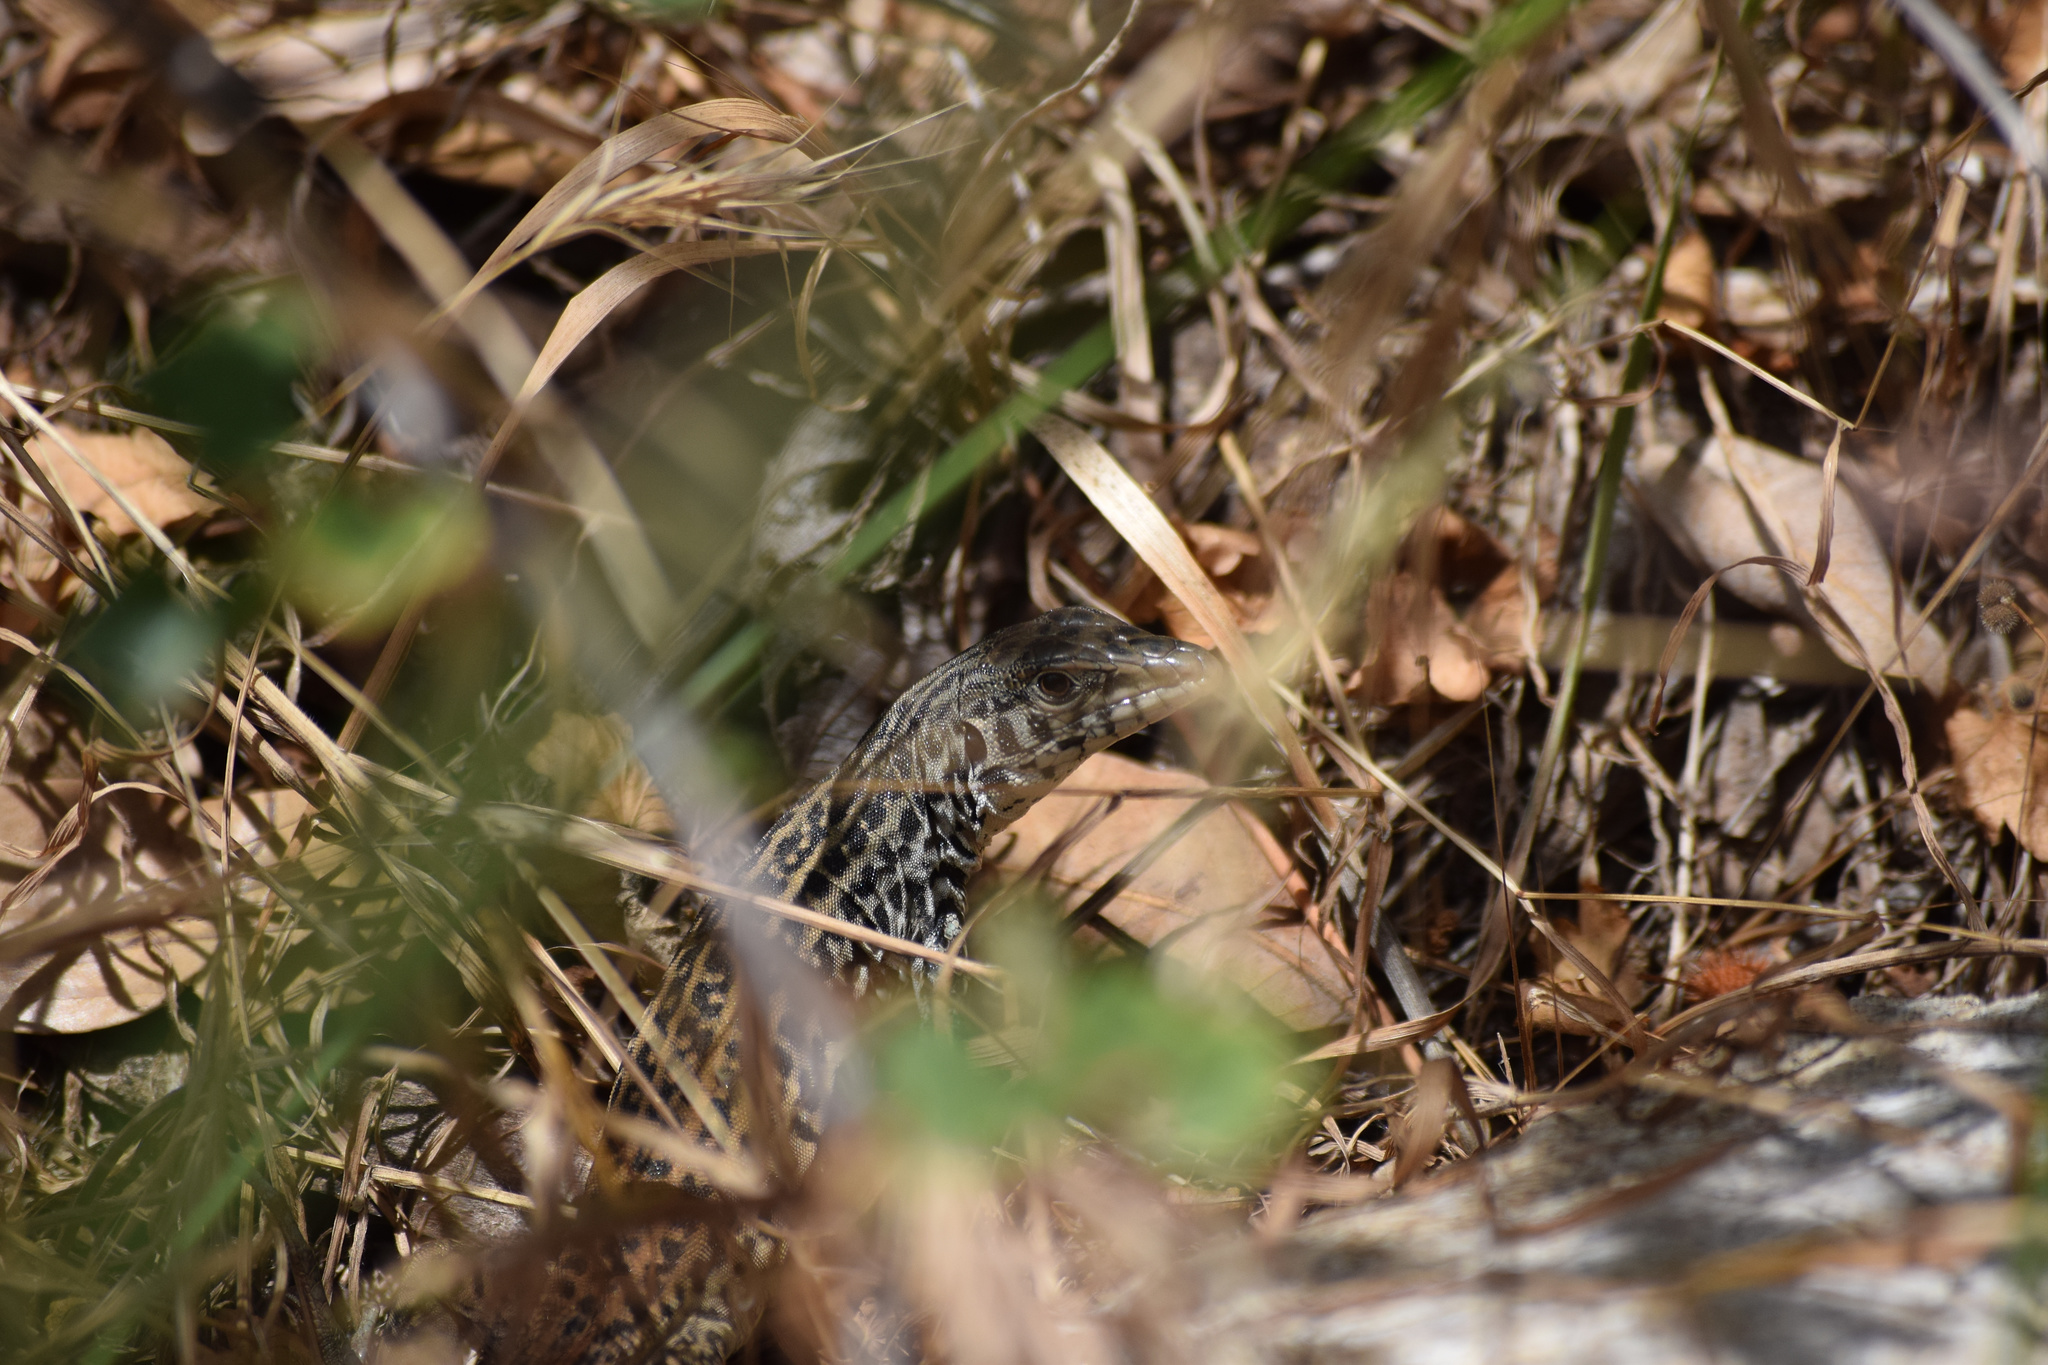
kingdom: Animalia
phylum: Chordata
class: Squamata
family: Teiidae
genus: Aspidoscelis
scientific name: Aspidoscelis tigris
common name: Tiger whiptail
